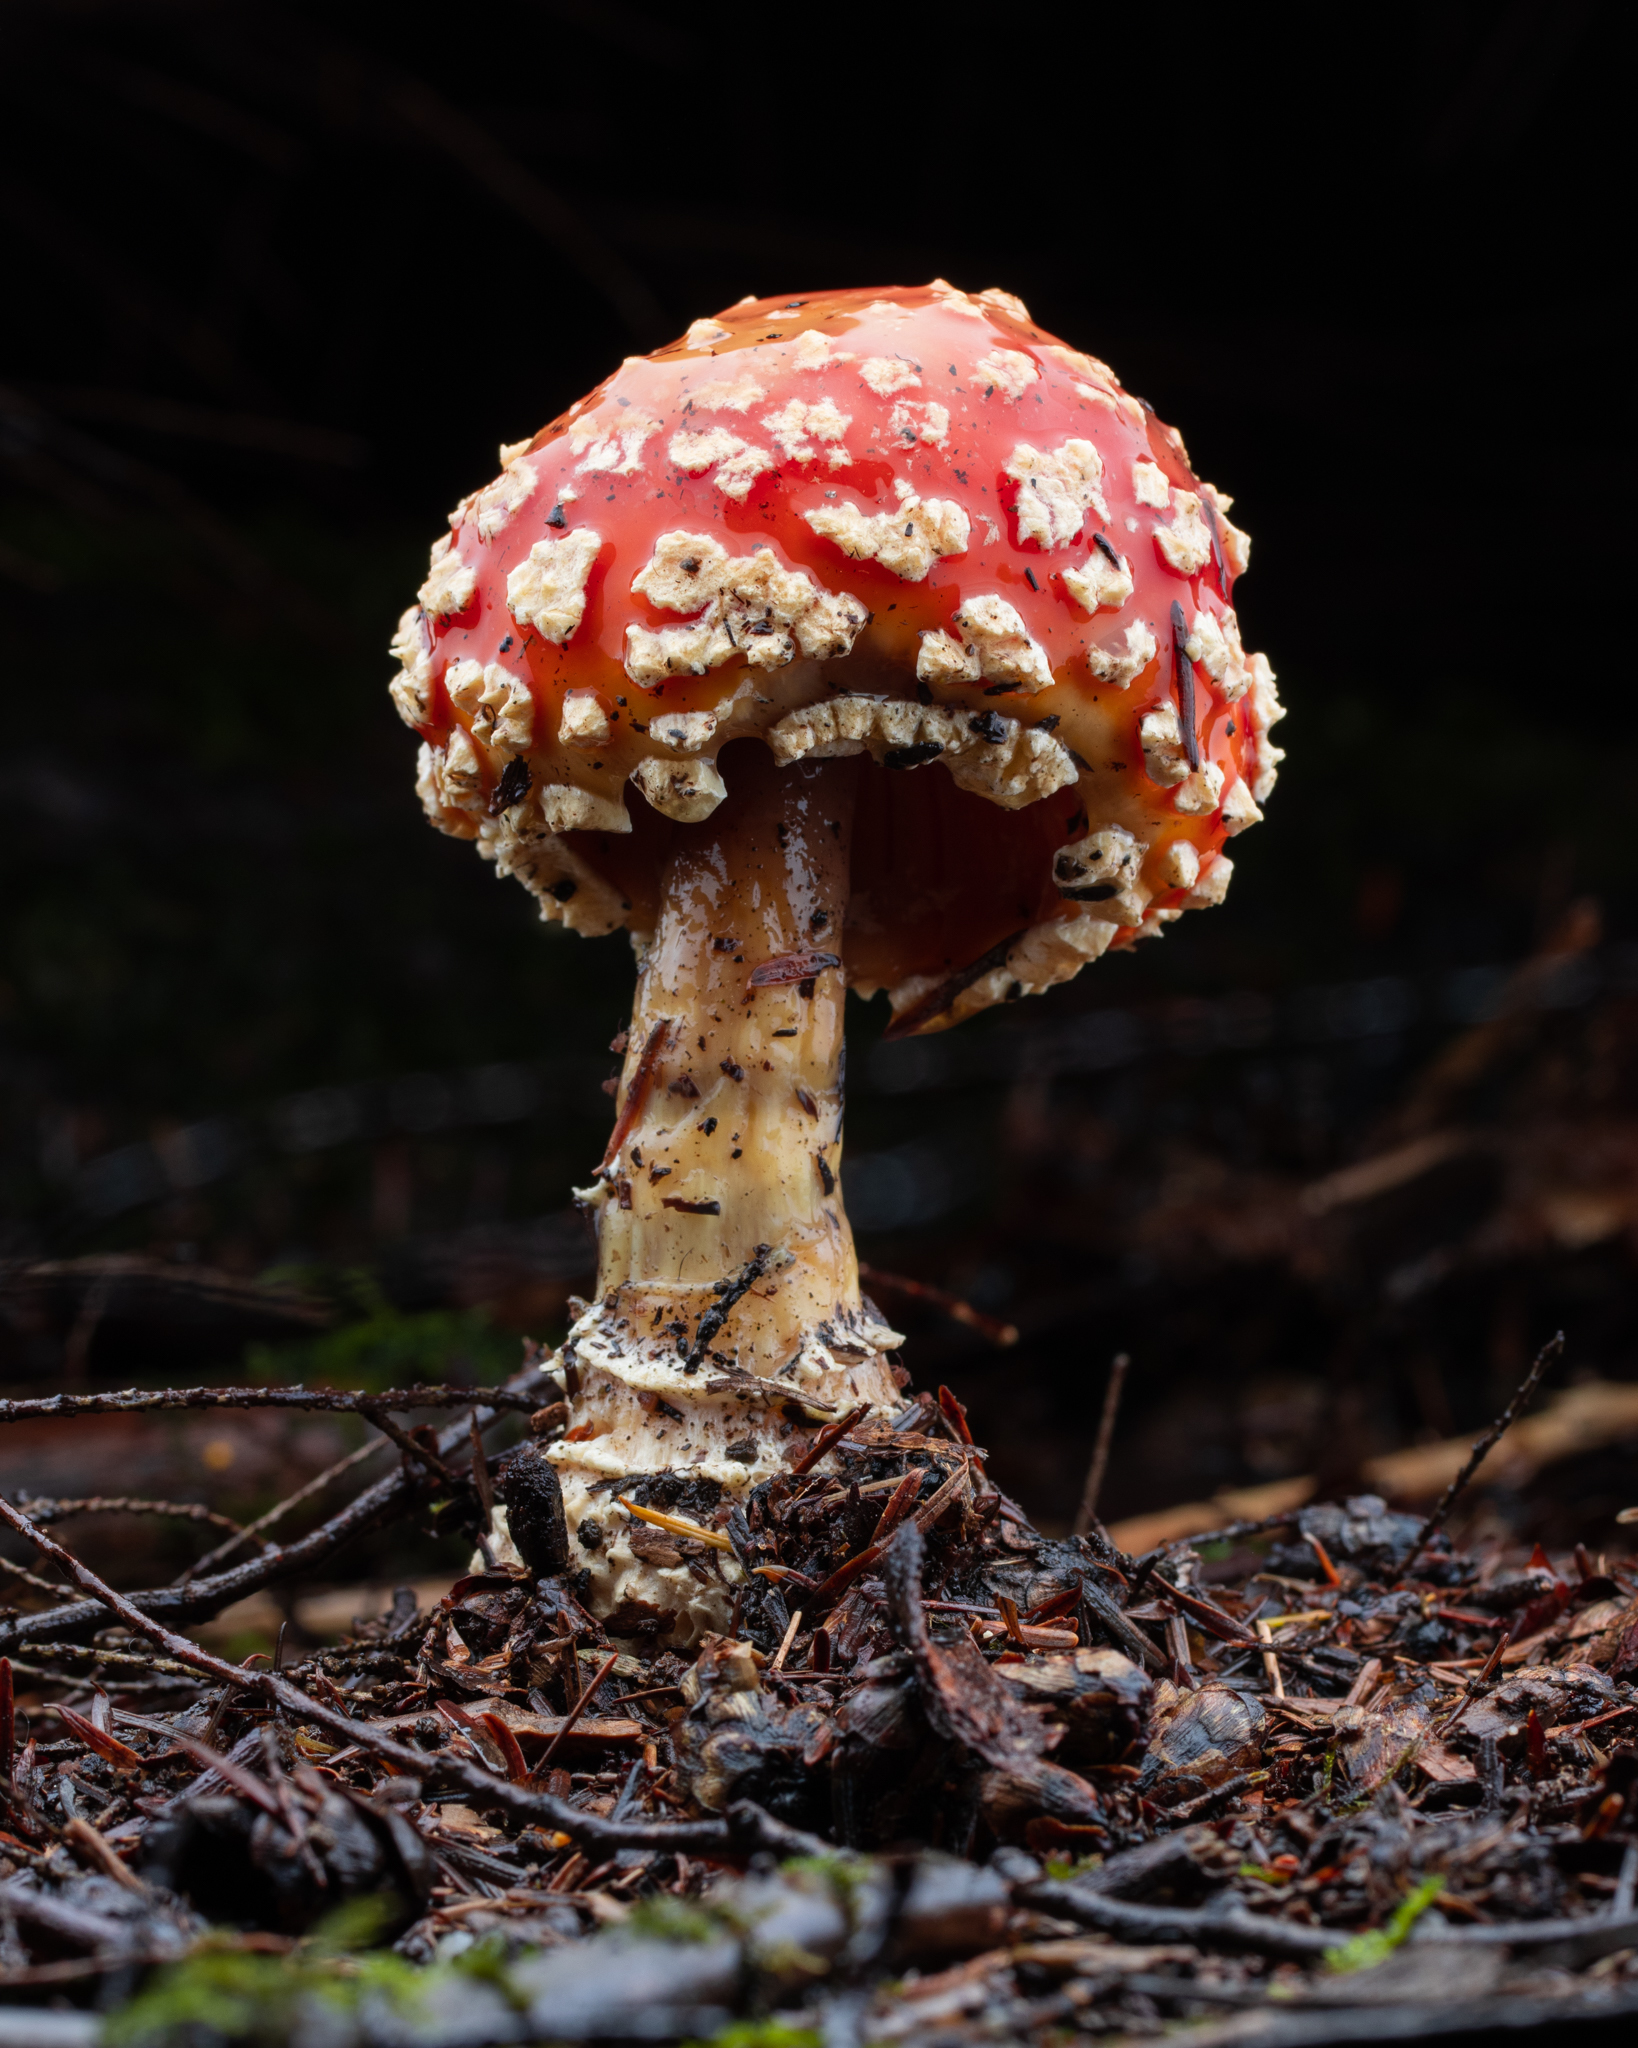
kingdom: Fungi
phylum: Basidiomycota
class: Agaricomycetes
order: Agaricales
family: Amanitaceae
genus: Amanita
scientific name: Amanita muscaria
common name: Fly agaric
